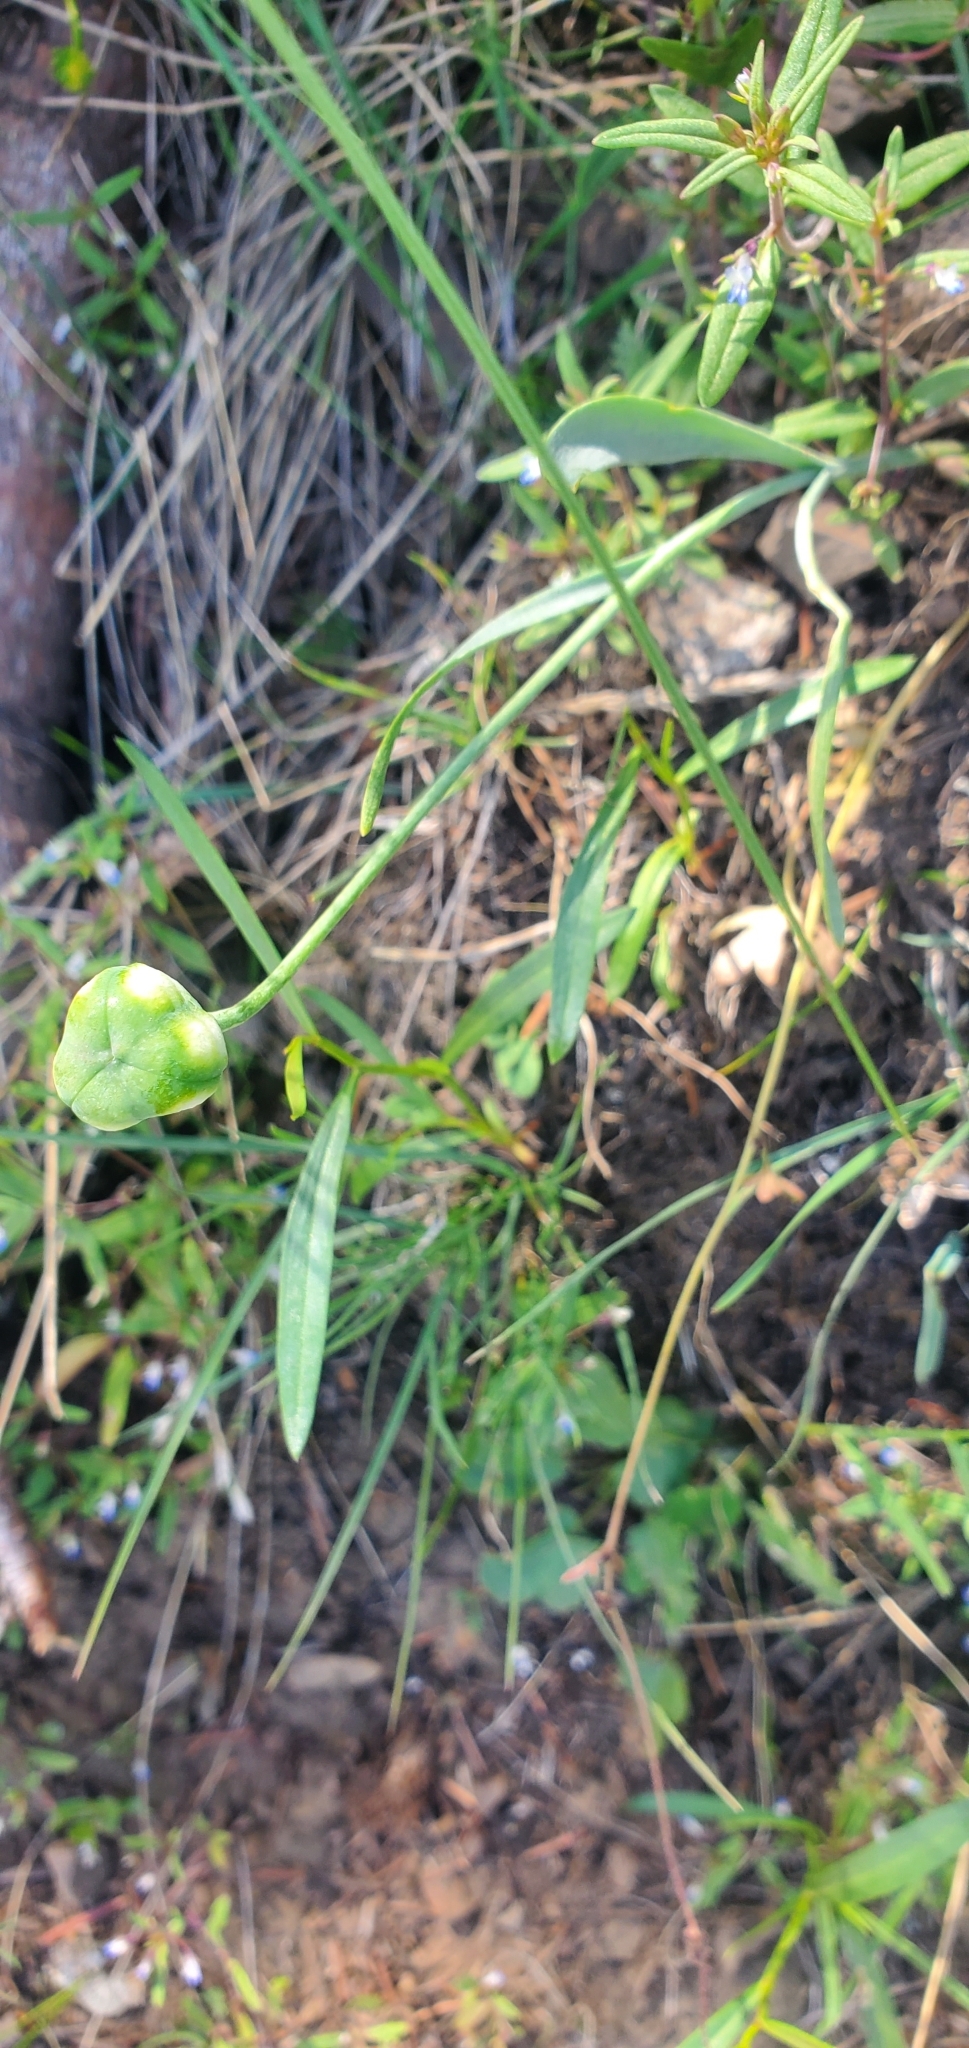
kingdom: Plantae
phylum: Tracheophyta
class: Liliopsida
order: Liliales
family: Liliaceae
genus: Fritillaria
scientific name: Fritillaria pudica
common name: Yellow fritillary
